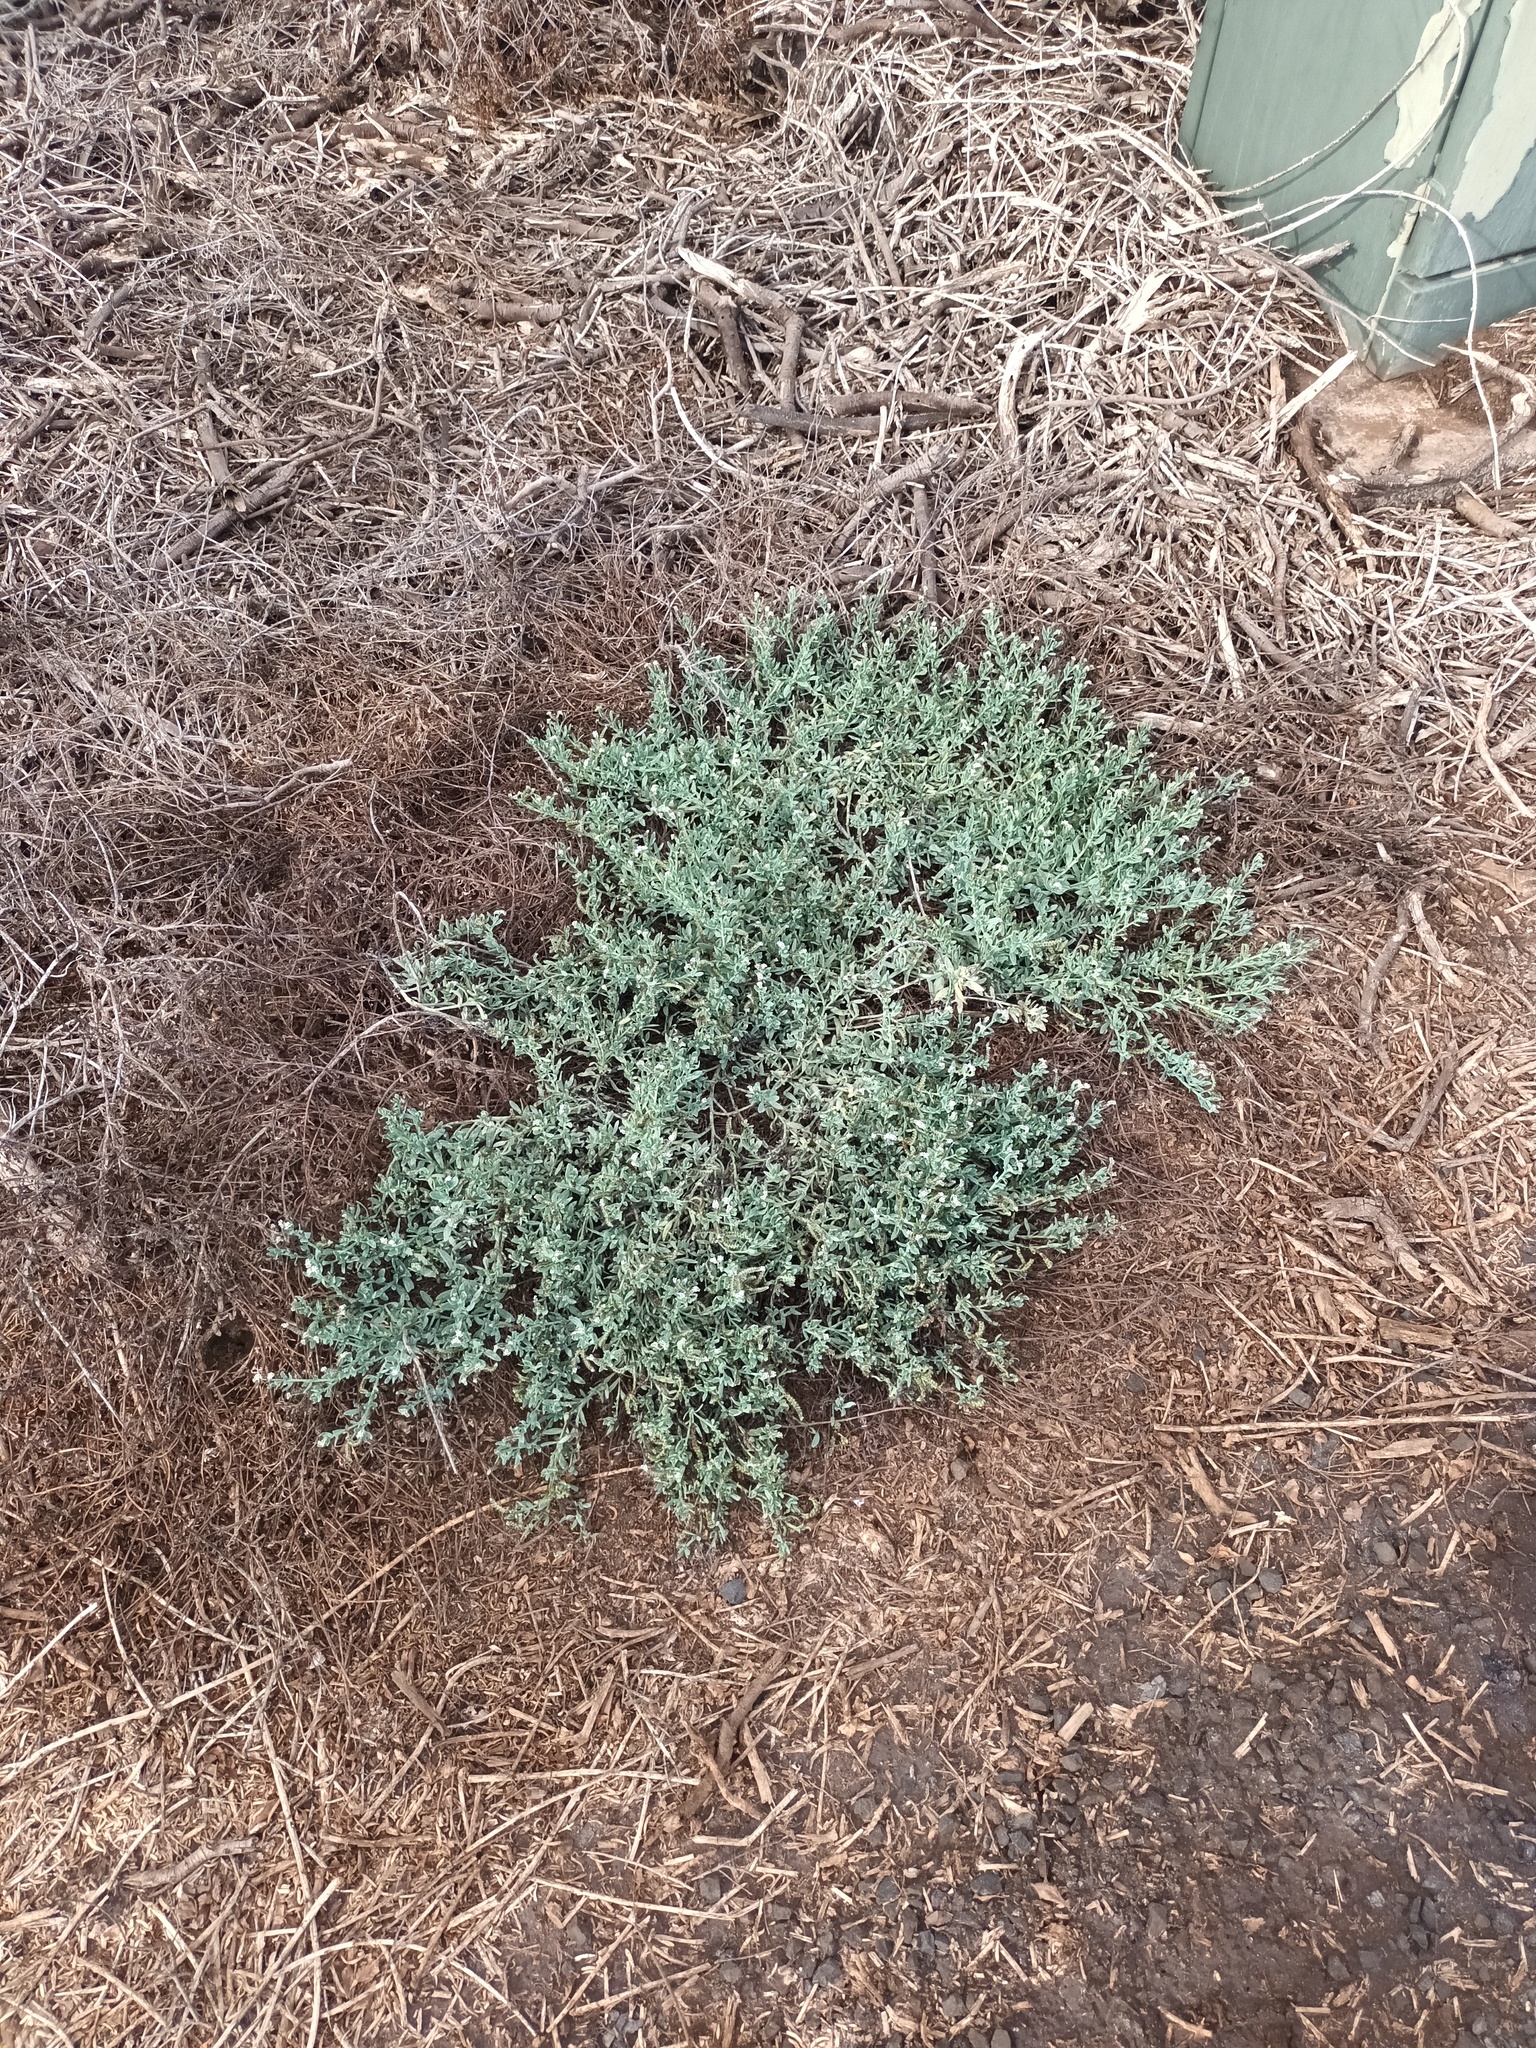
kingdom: Plantae
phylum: Tracheophyta
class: Magnoliopsida
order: Boraginales
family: Heliotropiaceae
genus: Heliotropium
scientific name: Heliotropium curassavicum
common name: Seaside heliotrope
